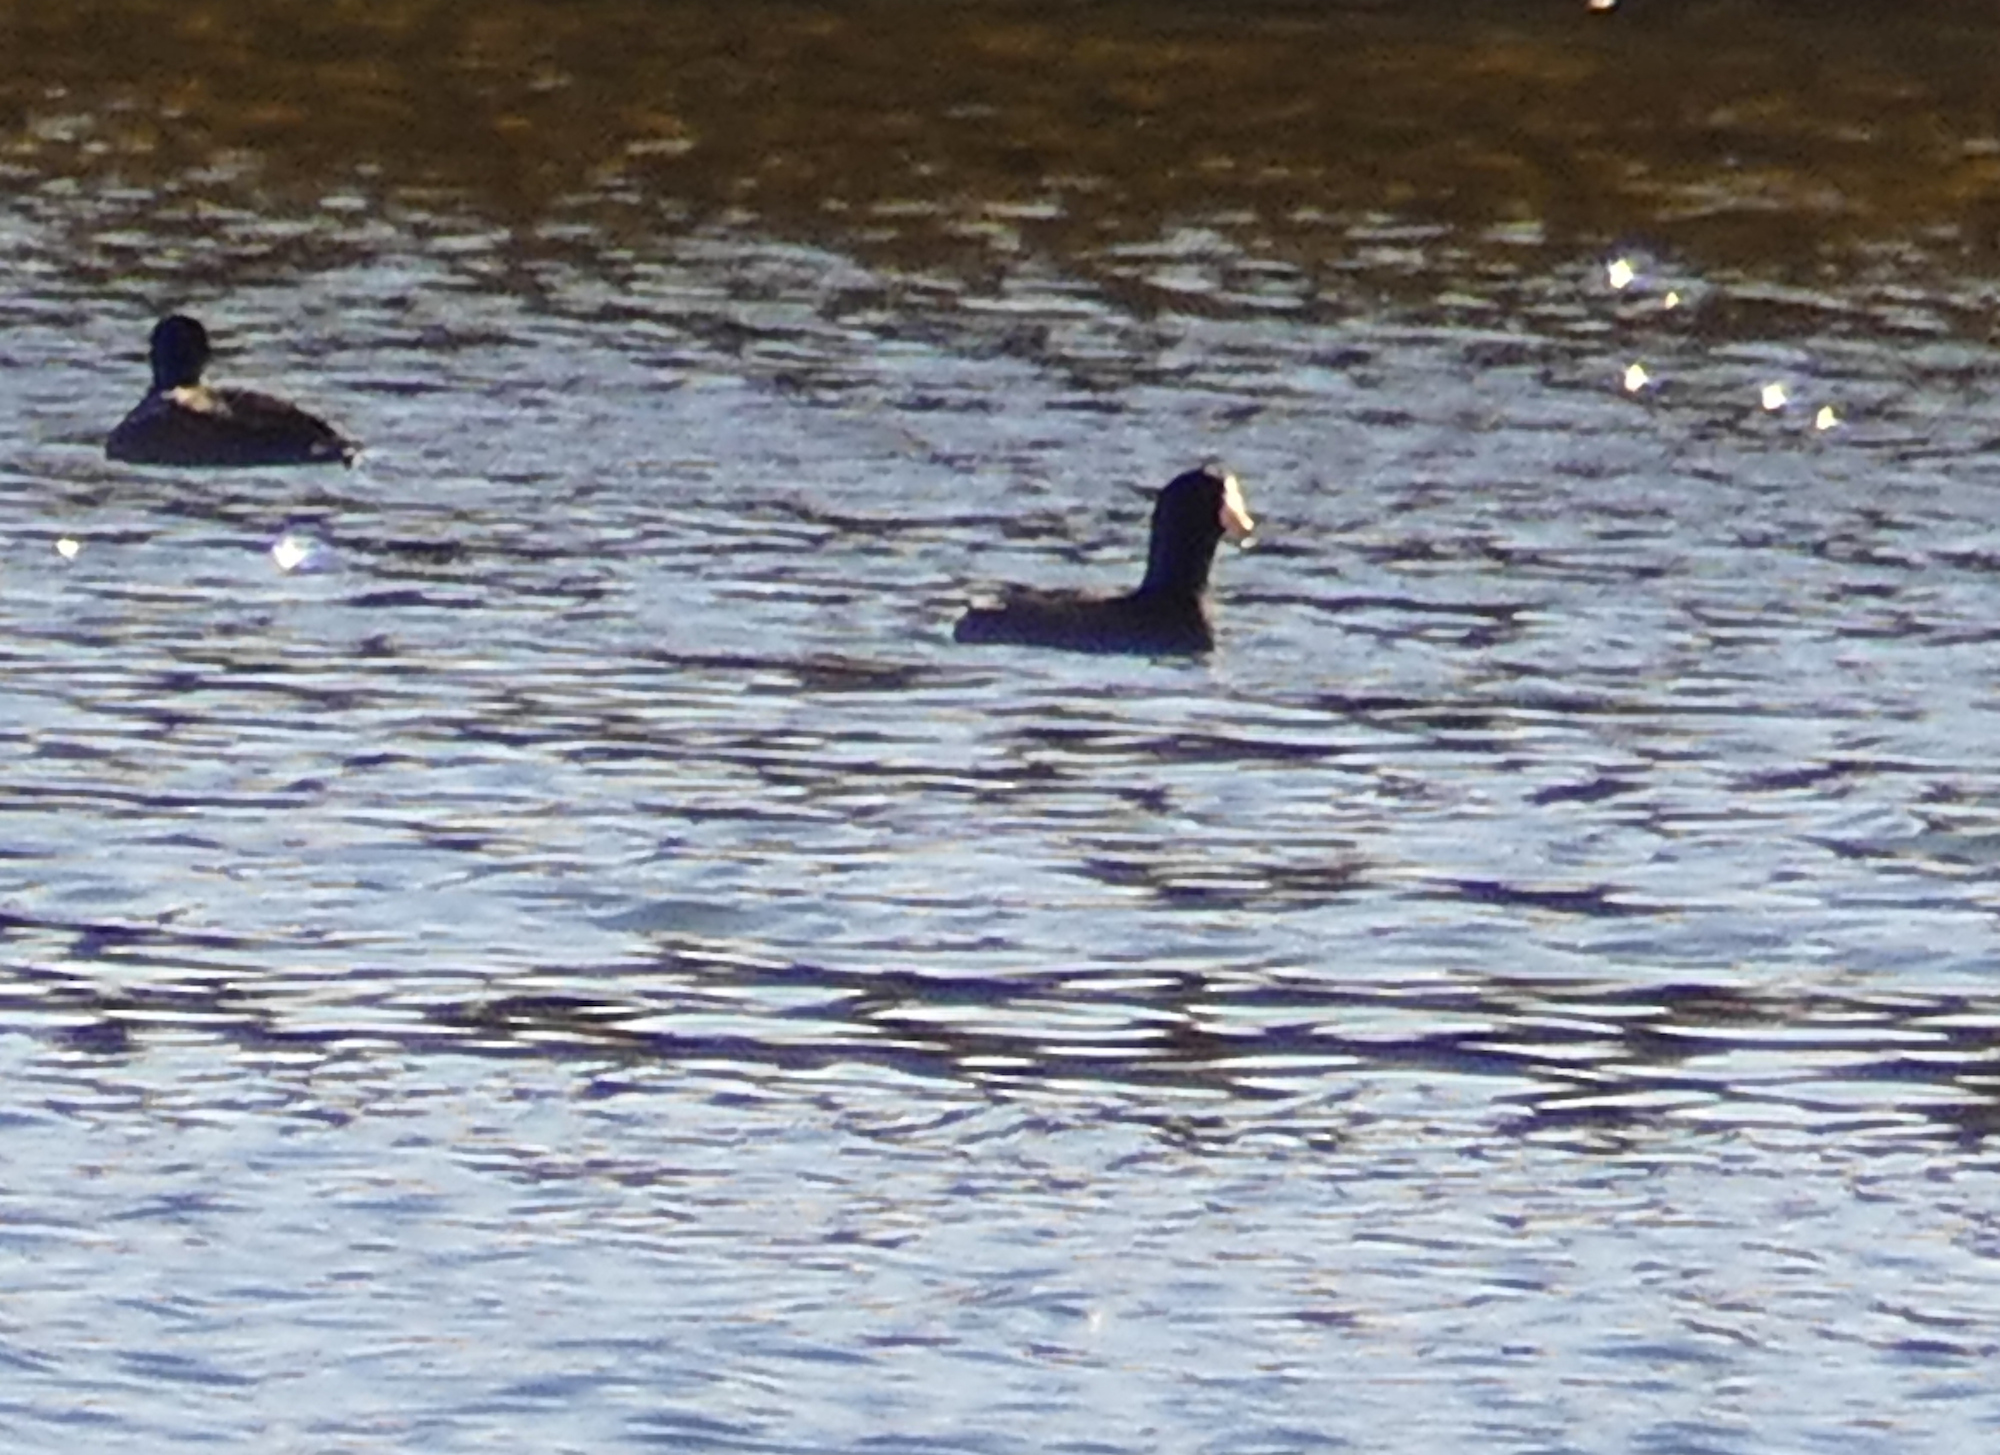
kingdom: Animalia
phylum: Chordata
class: Aves
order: Gruiformes
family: Rallidae
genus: Fulica
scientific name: Fulica americana
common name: American coot
